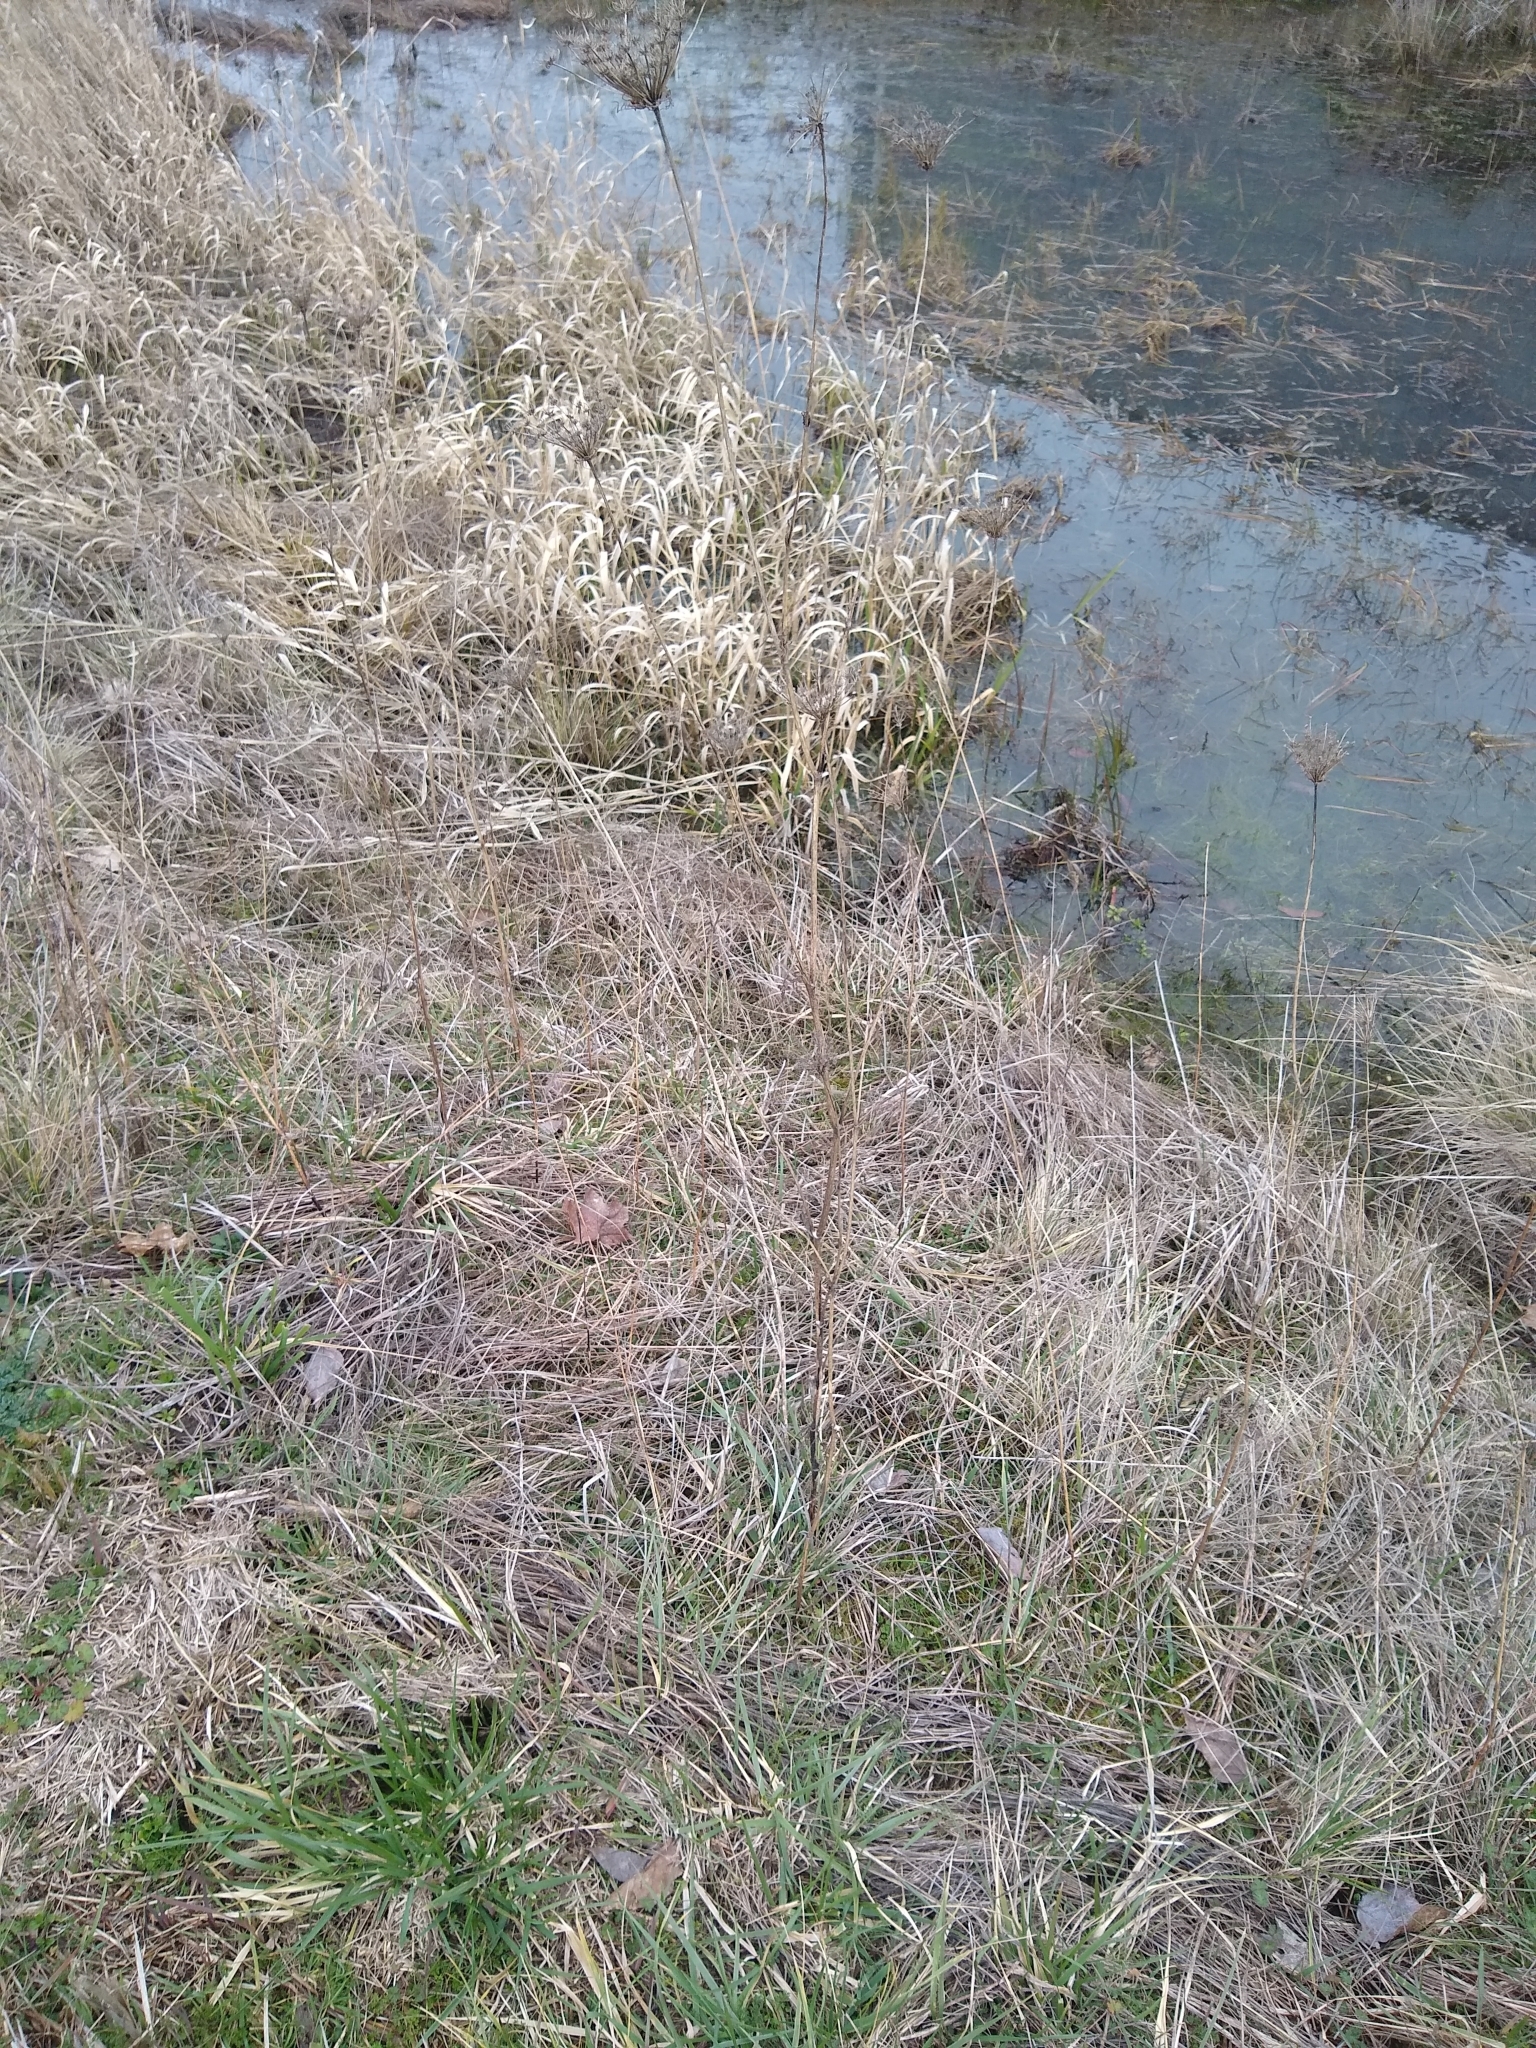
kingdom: Plantae
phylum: Tracheophyta
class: Magnoliopsida
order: Apiales
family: Apiaceae
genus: Daucus
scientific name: Daucus carota
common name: Wild carrot
